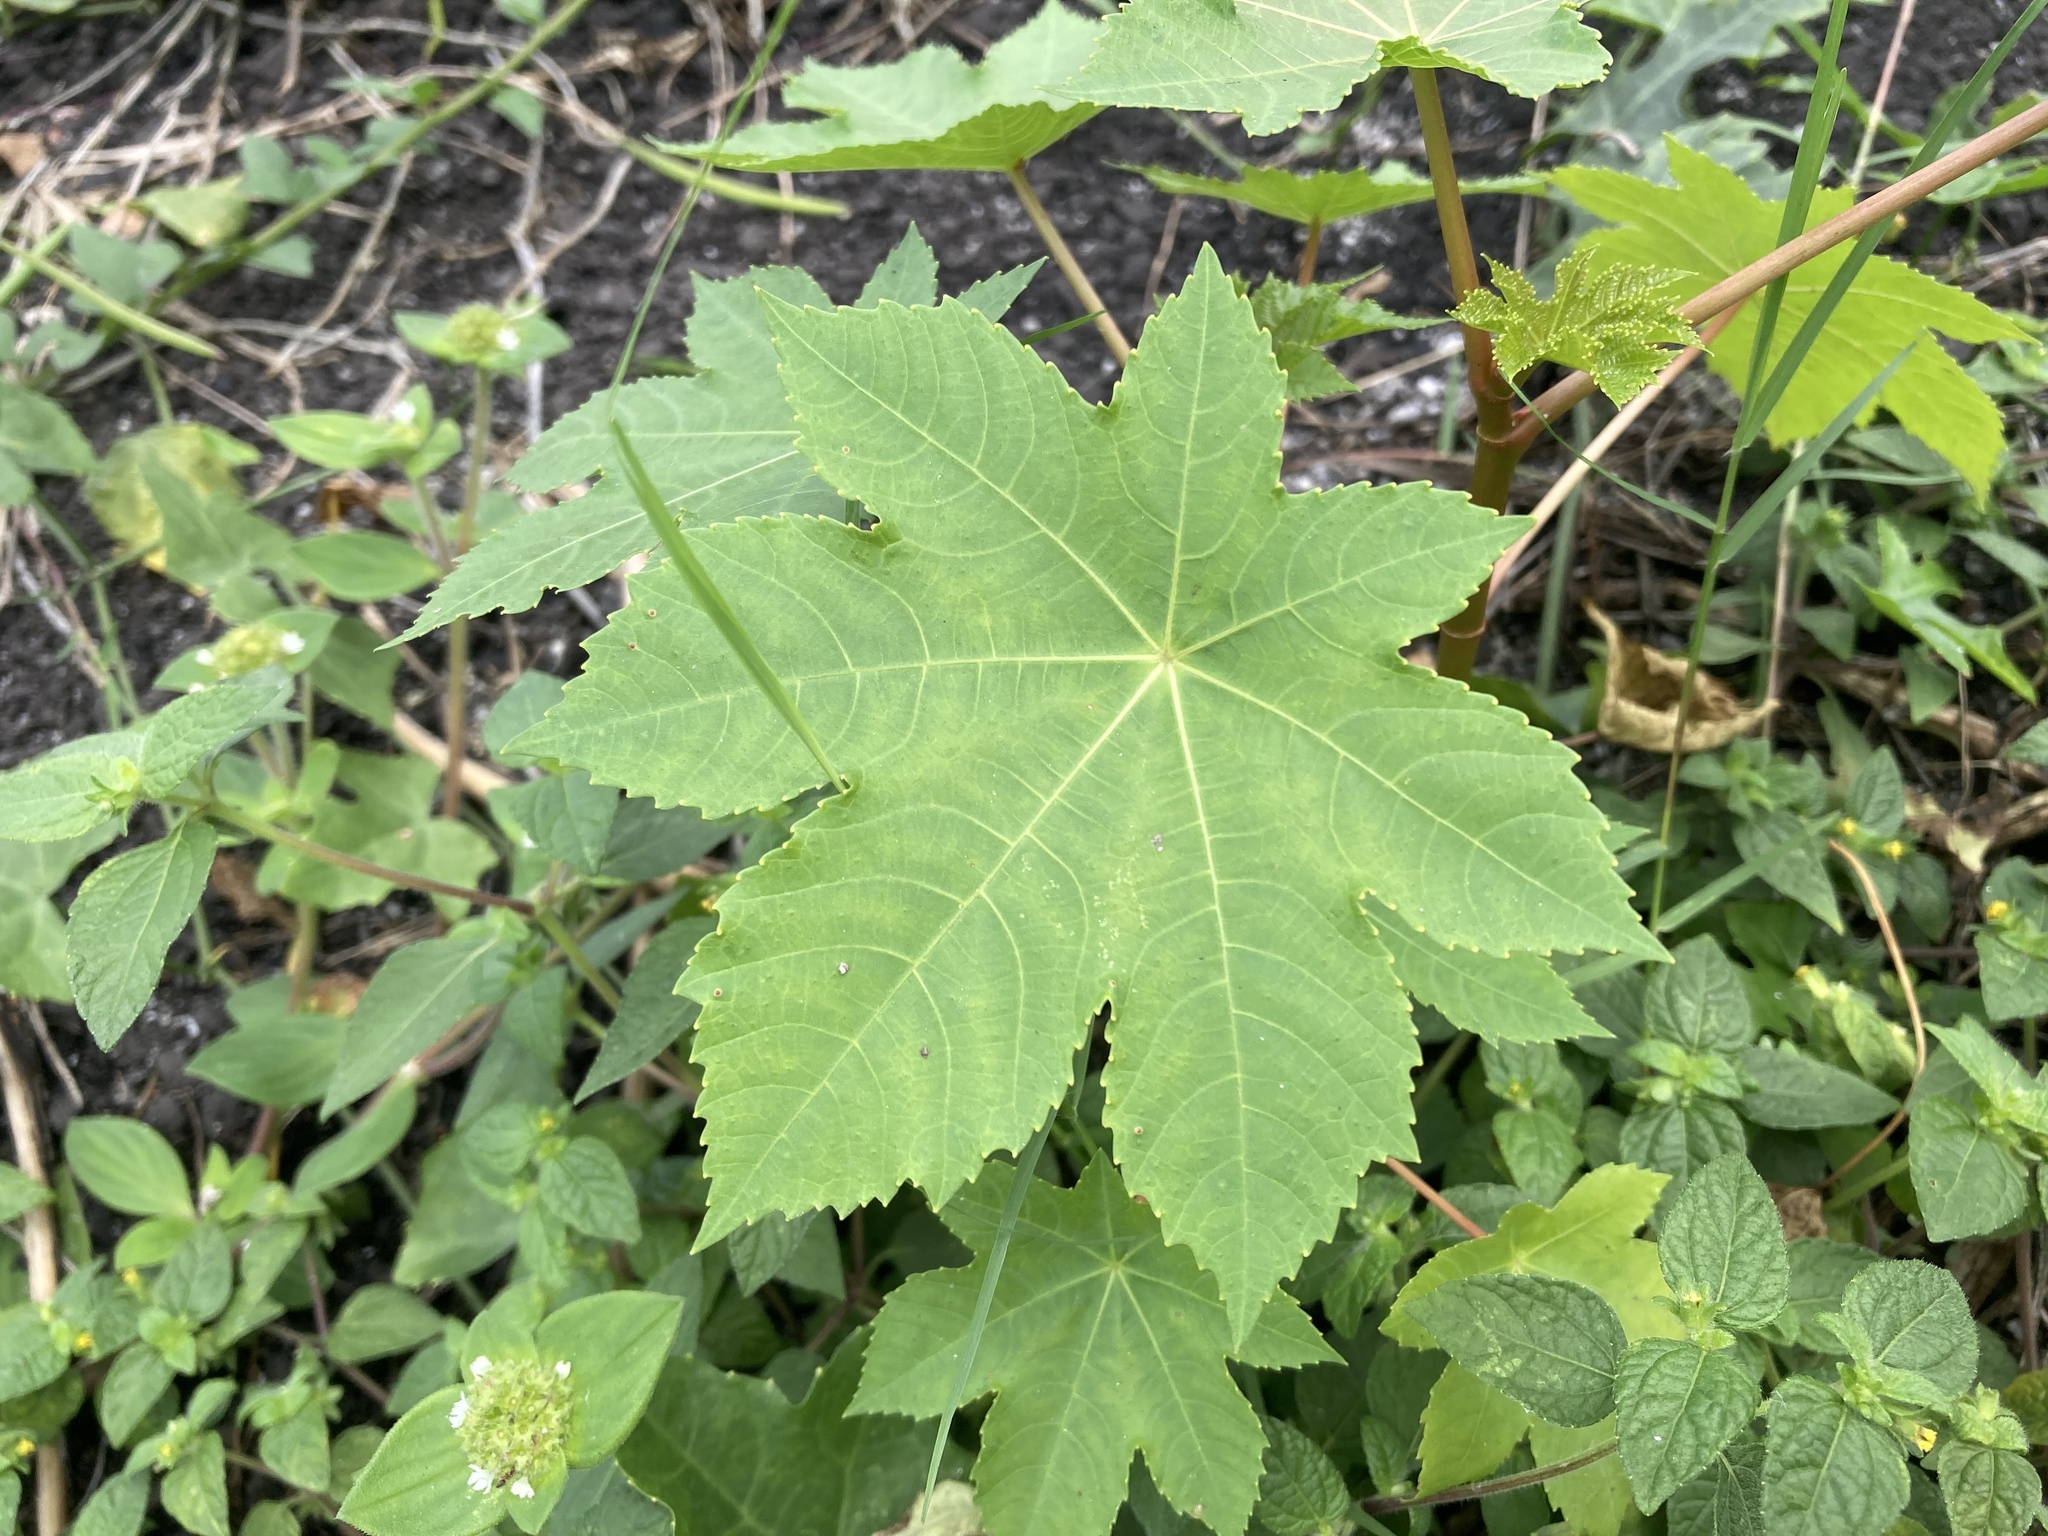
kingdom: Plantae
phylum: Tracheophyta
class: Magnoliopsida
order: Malpighiales
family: Euphorbiaceae
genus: Ricinus
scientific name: Ricinus communis
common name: Castor-oil-plant
